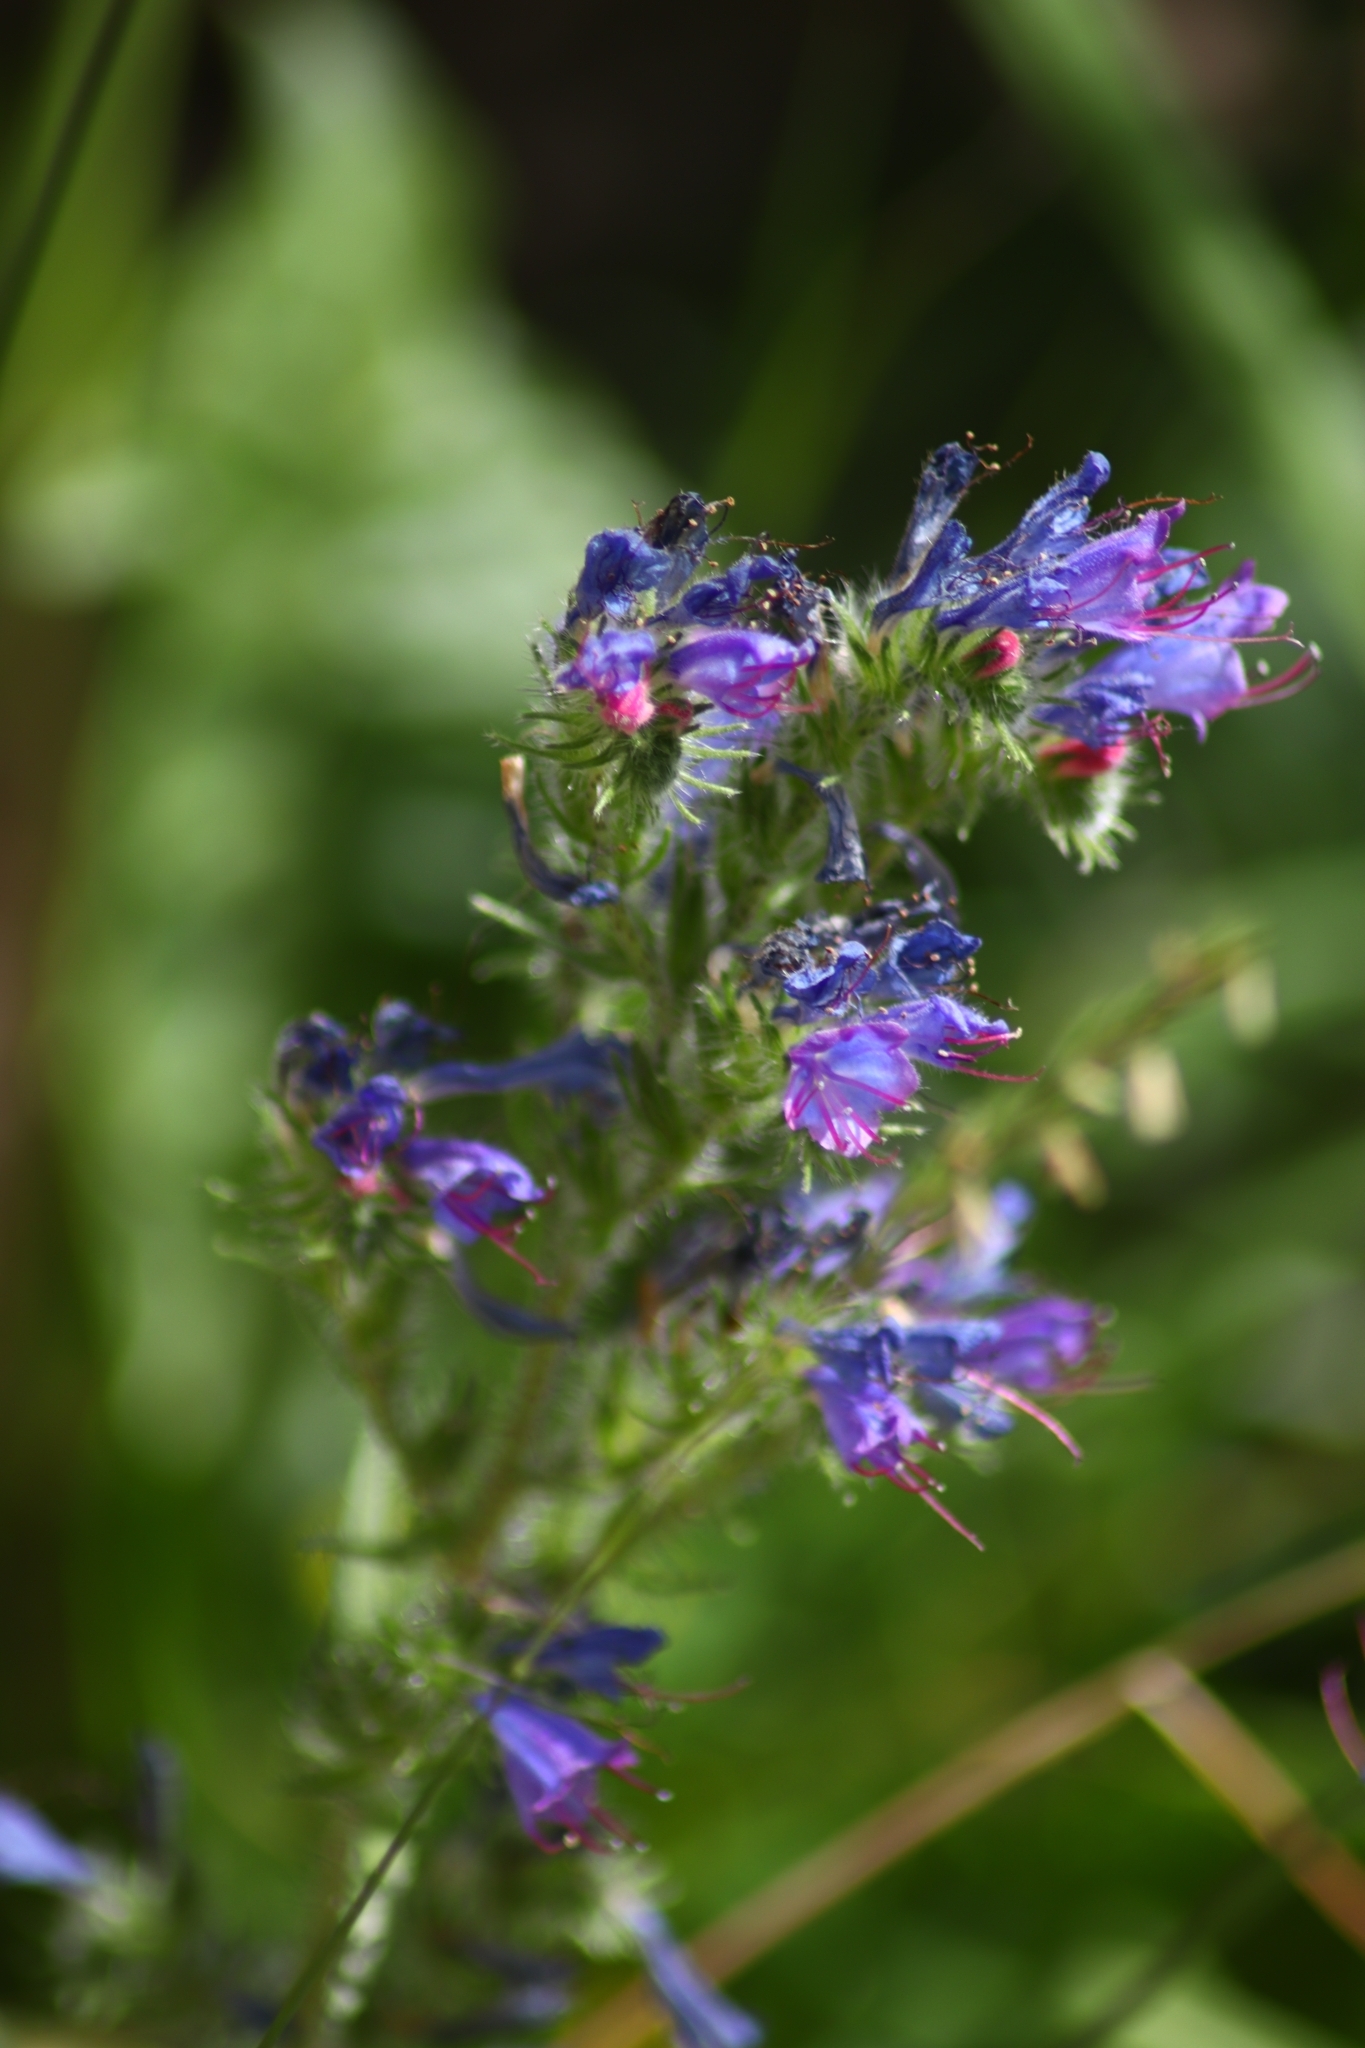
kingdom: Plantae
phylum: Tracheophyta
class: Magnoliopsida
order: Boraginales
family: Boraginaceae
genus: Echium
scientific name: Echium vulgare
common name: Common viper's bugloss
